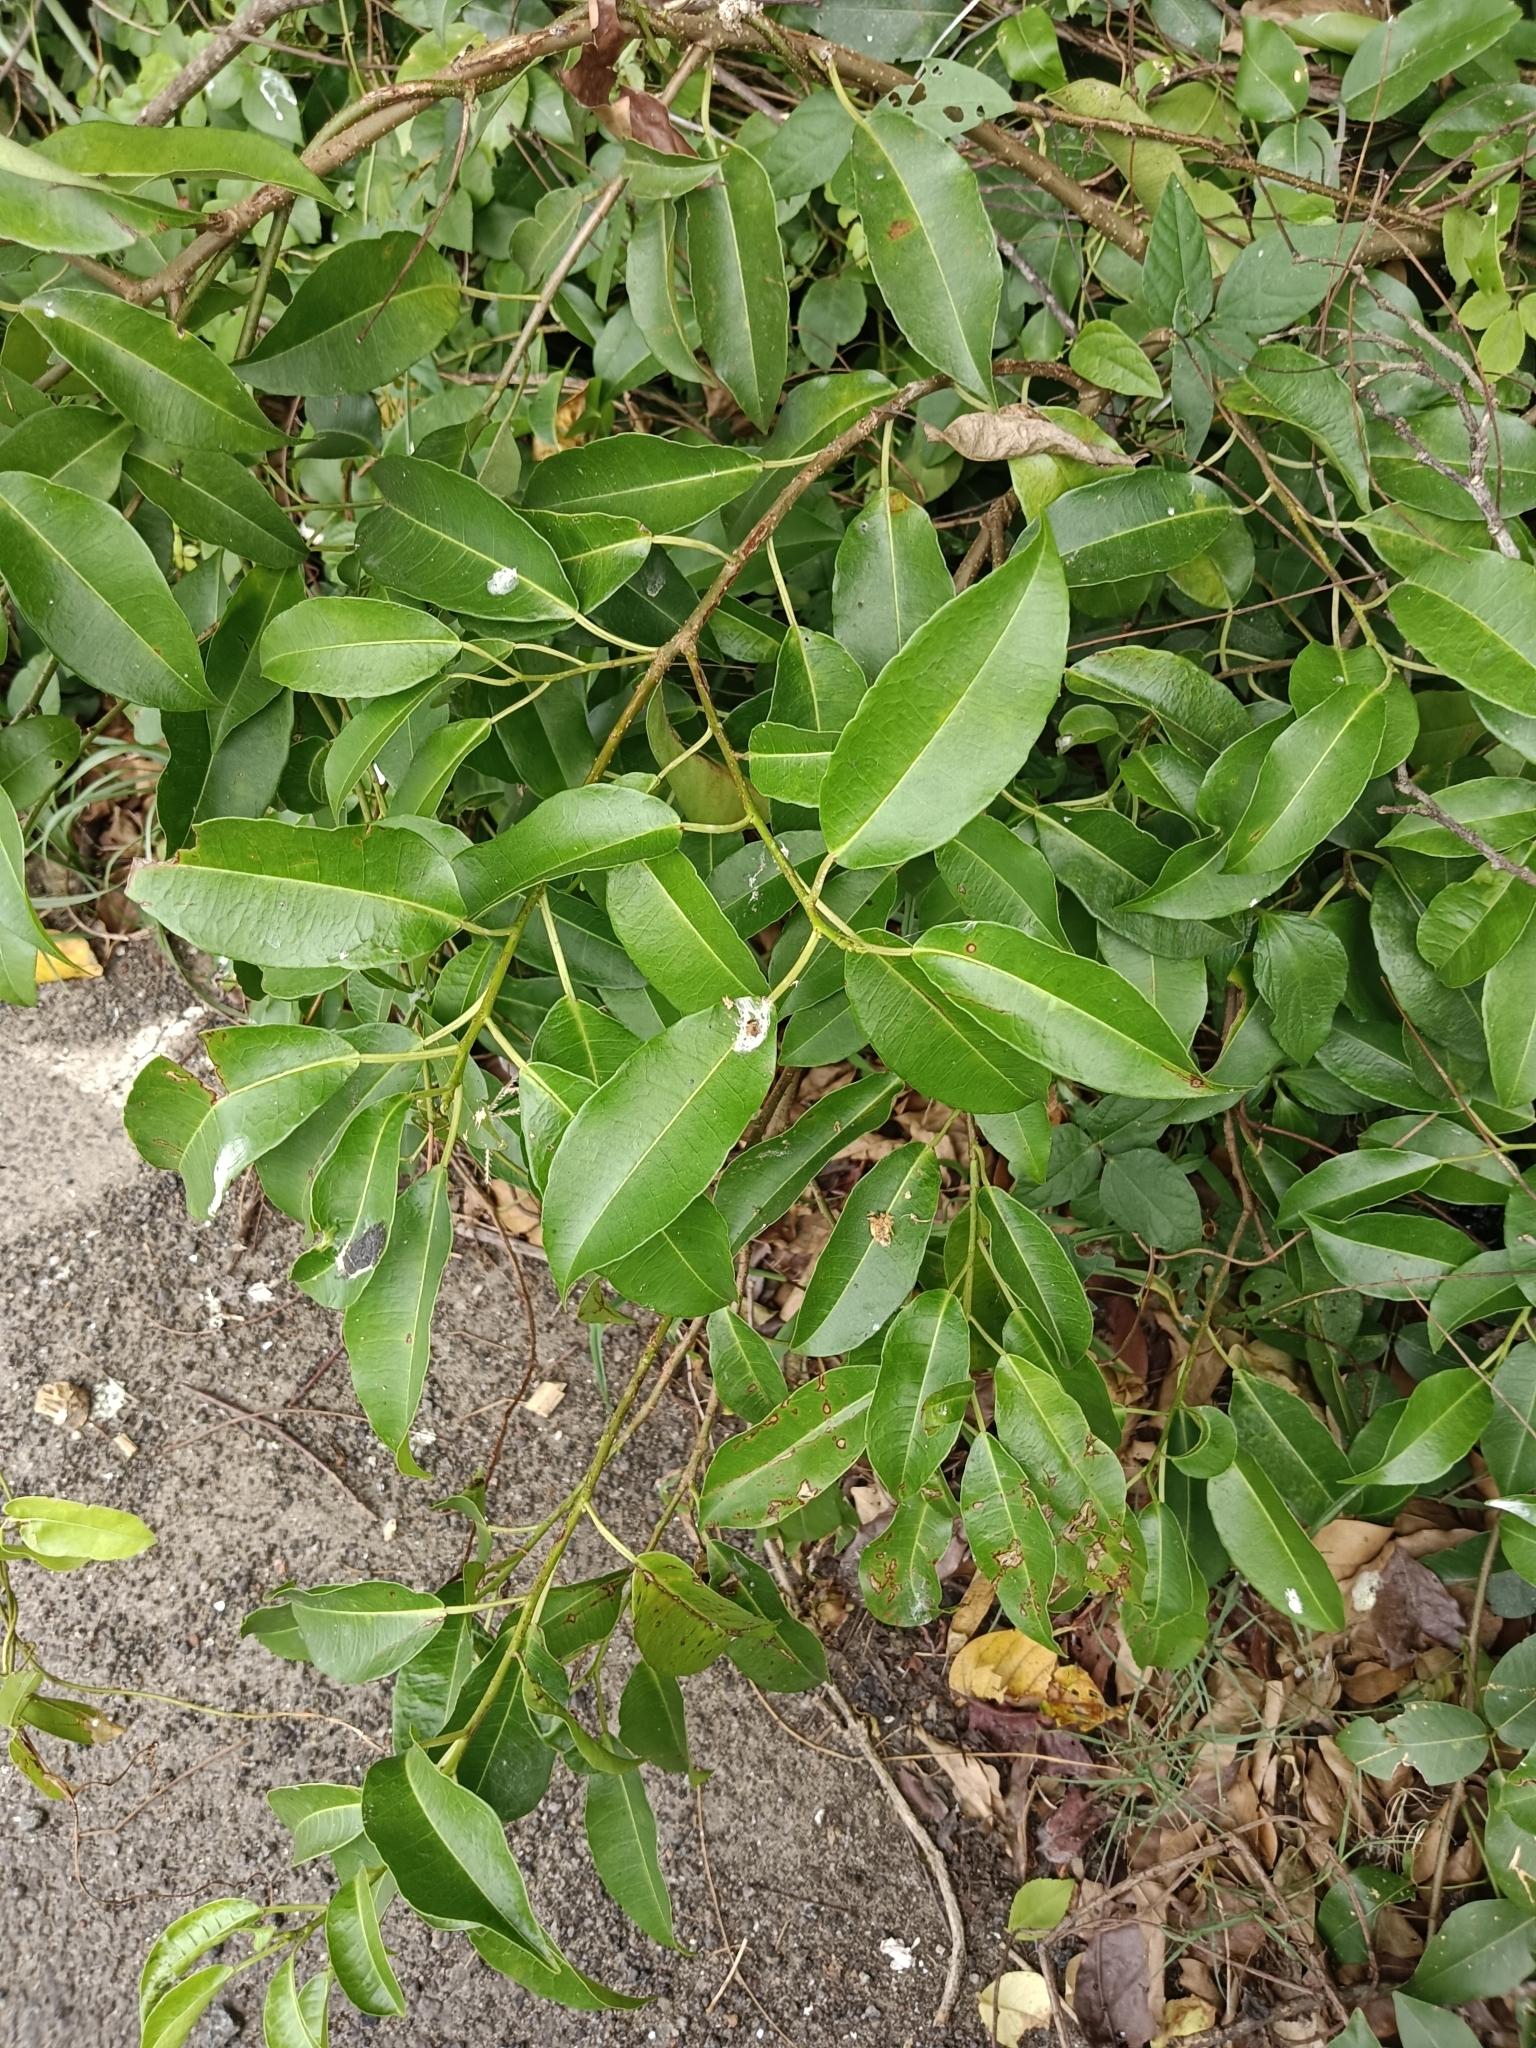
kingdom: Plantae
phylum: Tracheophyta
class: Magnoliopsida
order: Malpighiales
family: Euphorbiaceae
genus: Excoecaria
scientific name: Excoecaria agallocha
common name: River poisontree
